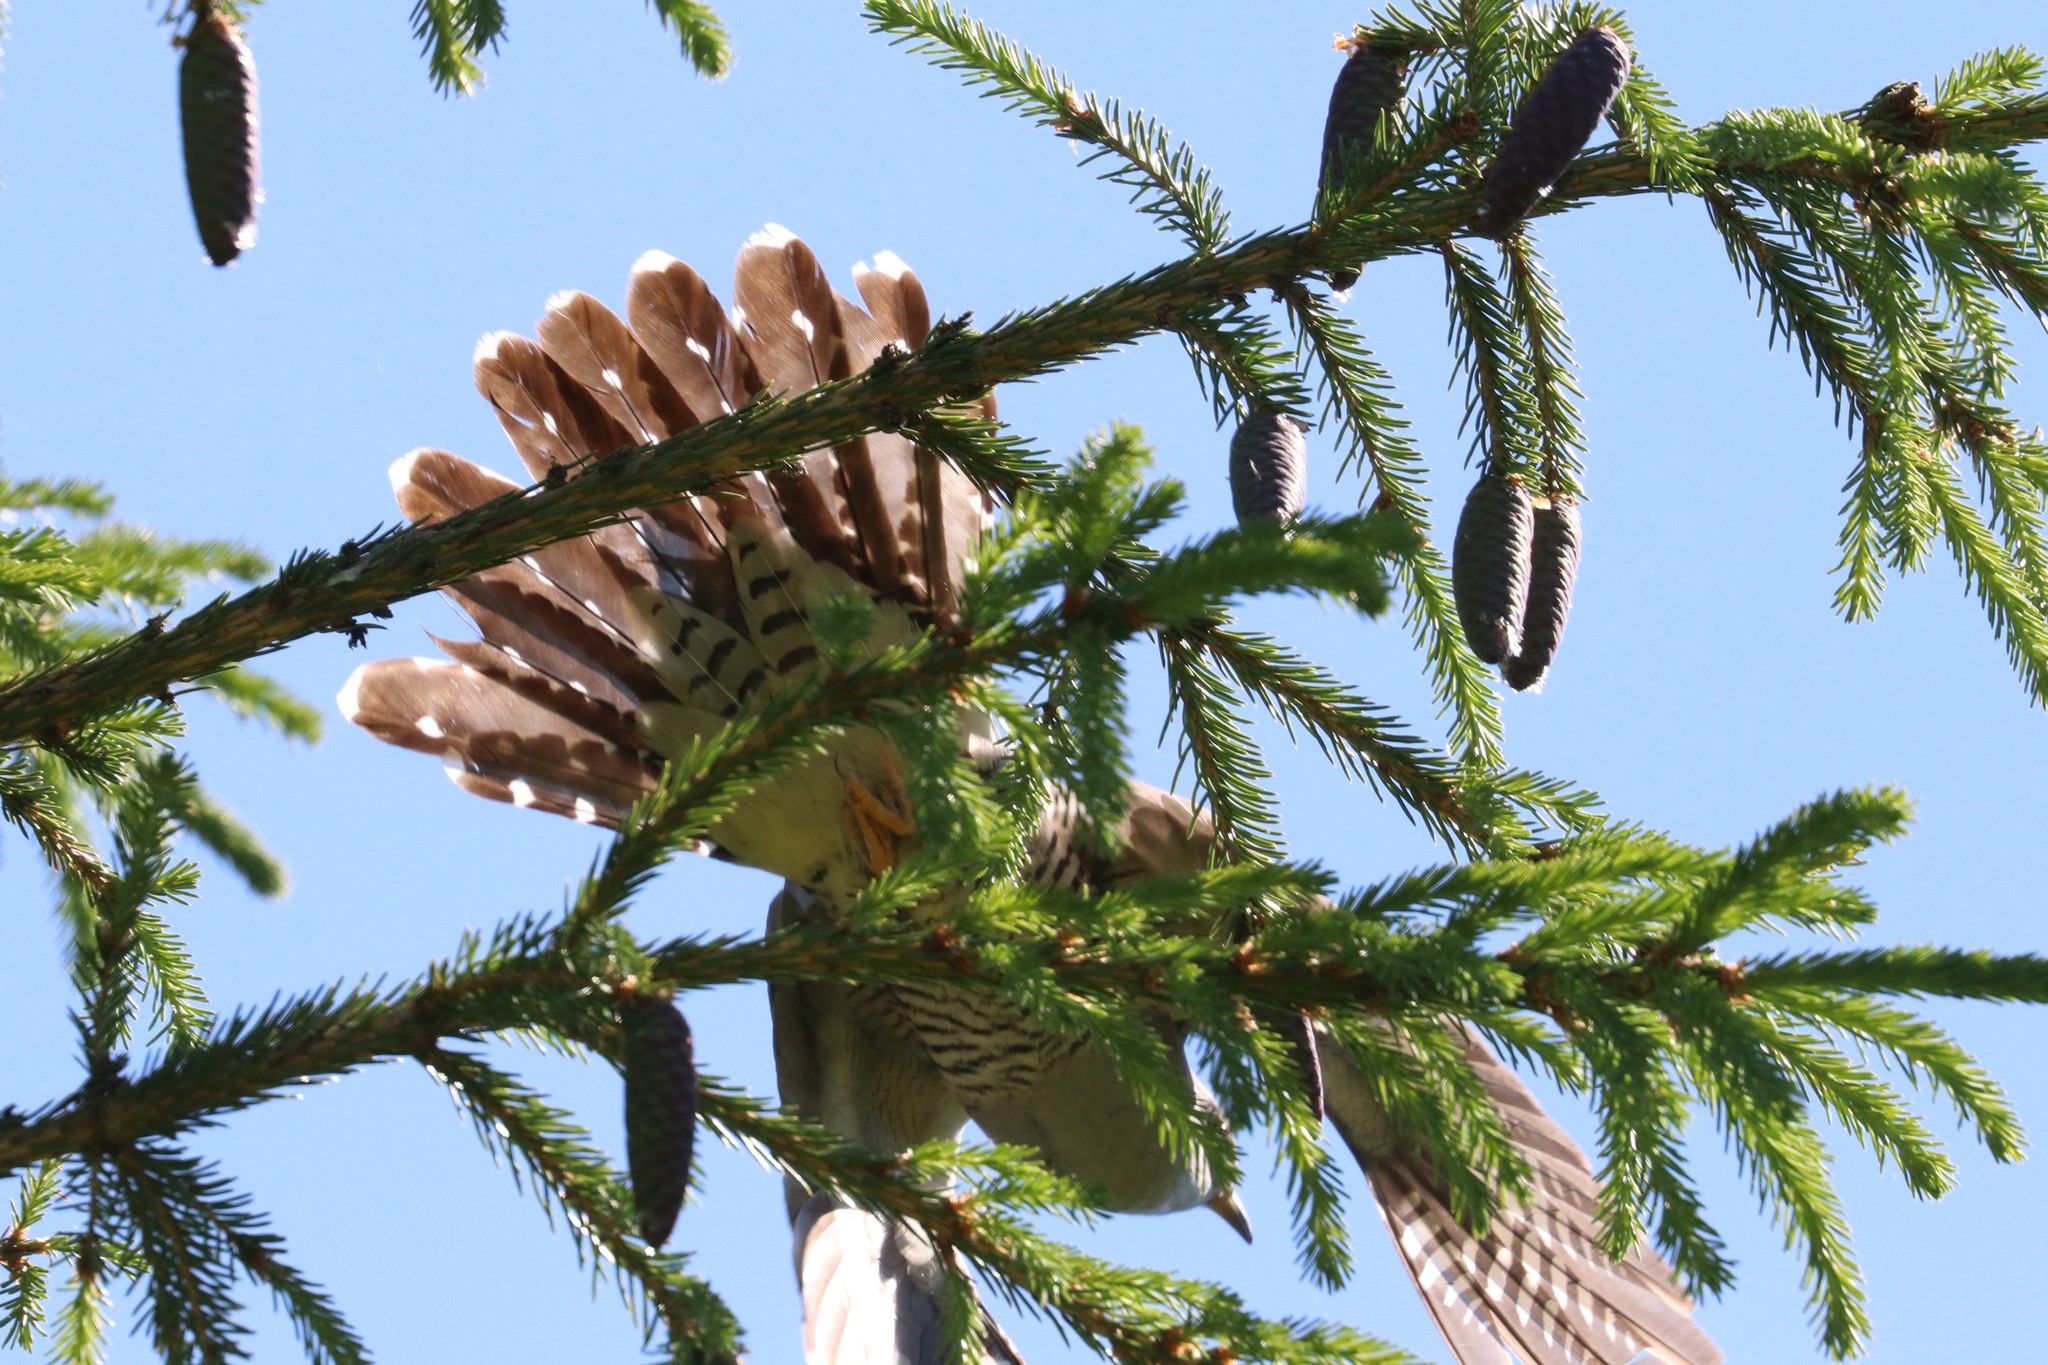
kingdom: Animalia
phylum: Chordata
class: Aves
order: Cuculiformes
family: Cuculidae
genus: Cuculus
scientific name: Cuculus optatus
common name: Oriental cuckoo
